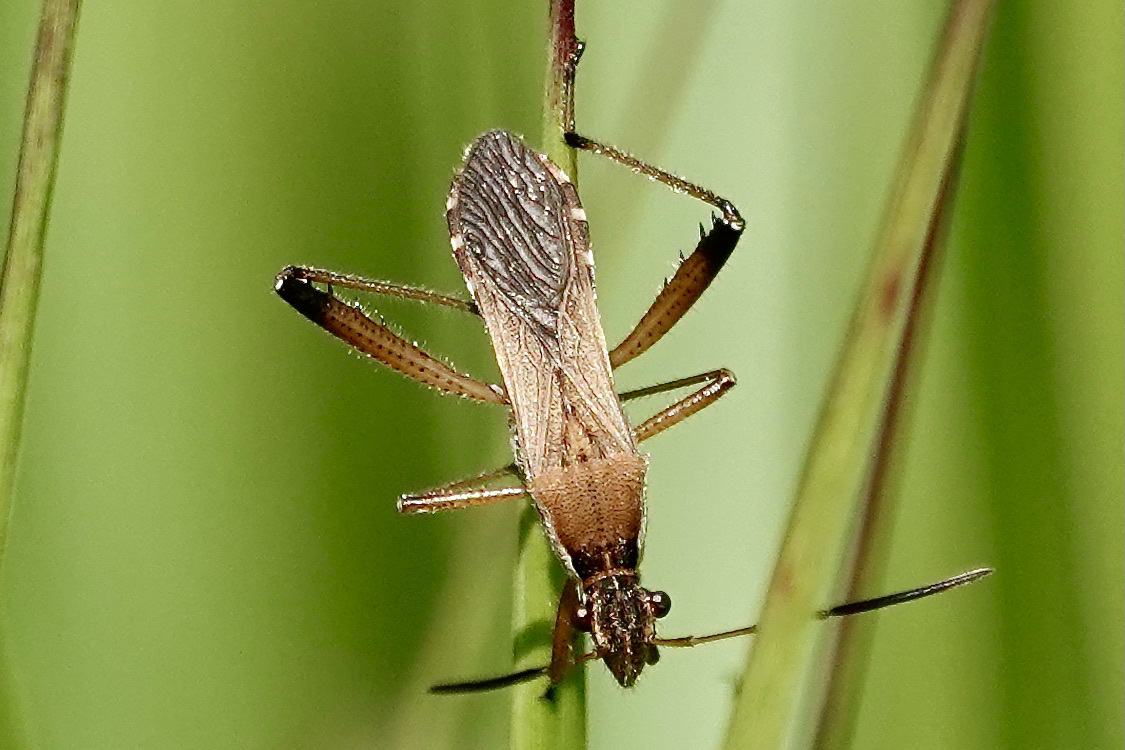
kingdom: Animalia
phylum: Arthropoda
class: Insecta
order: Hemiptera
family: Alydidae
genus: Alydus
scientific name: Alydus pilosulus
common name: Broad-headed bug
